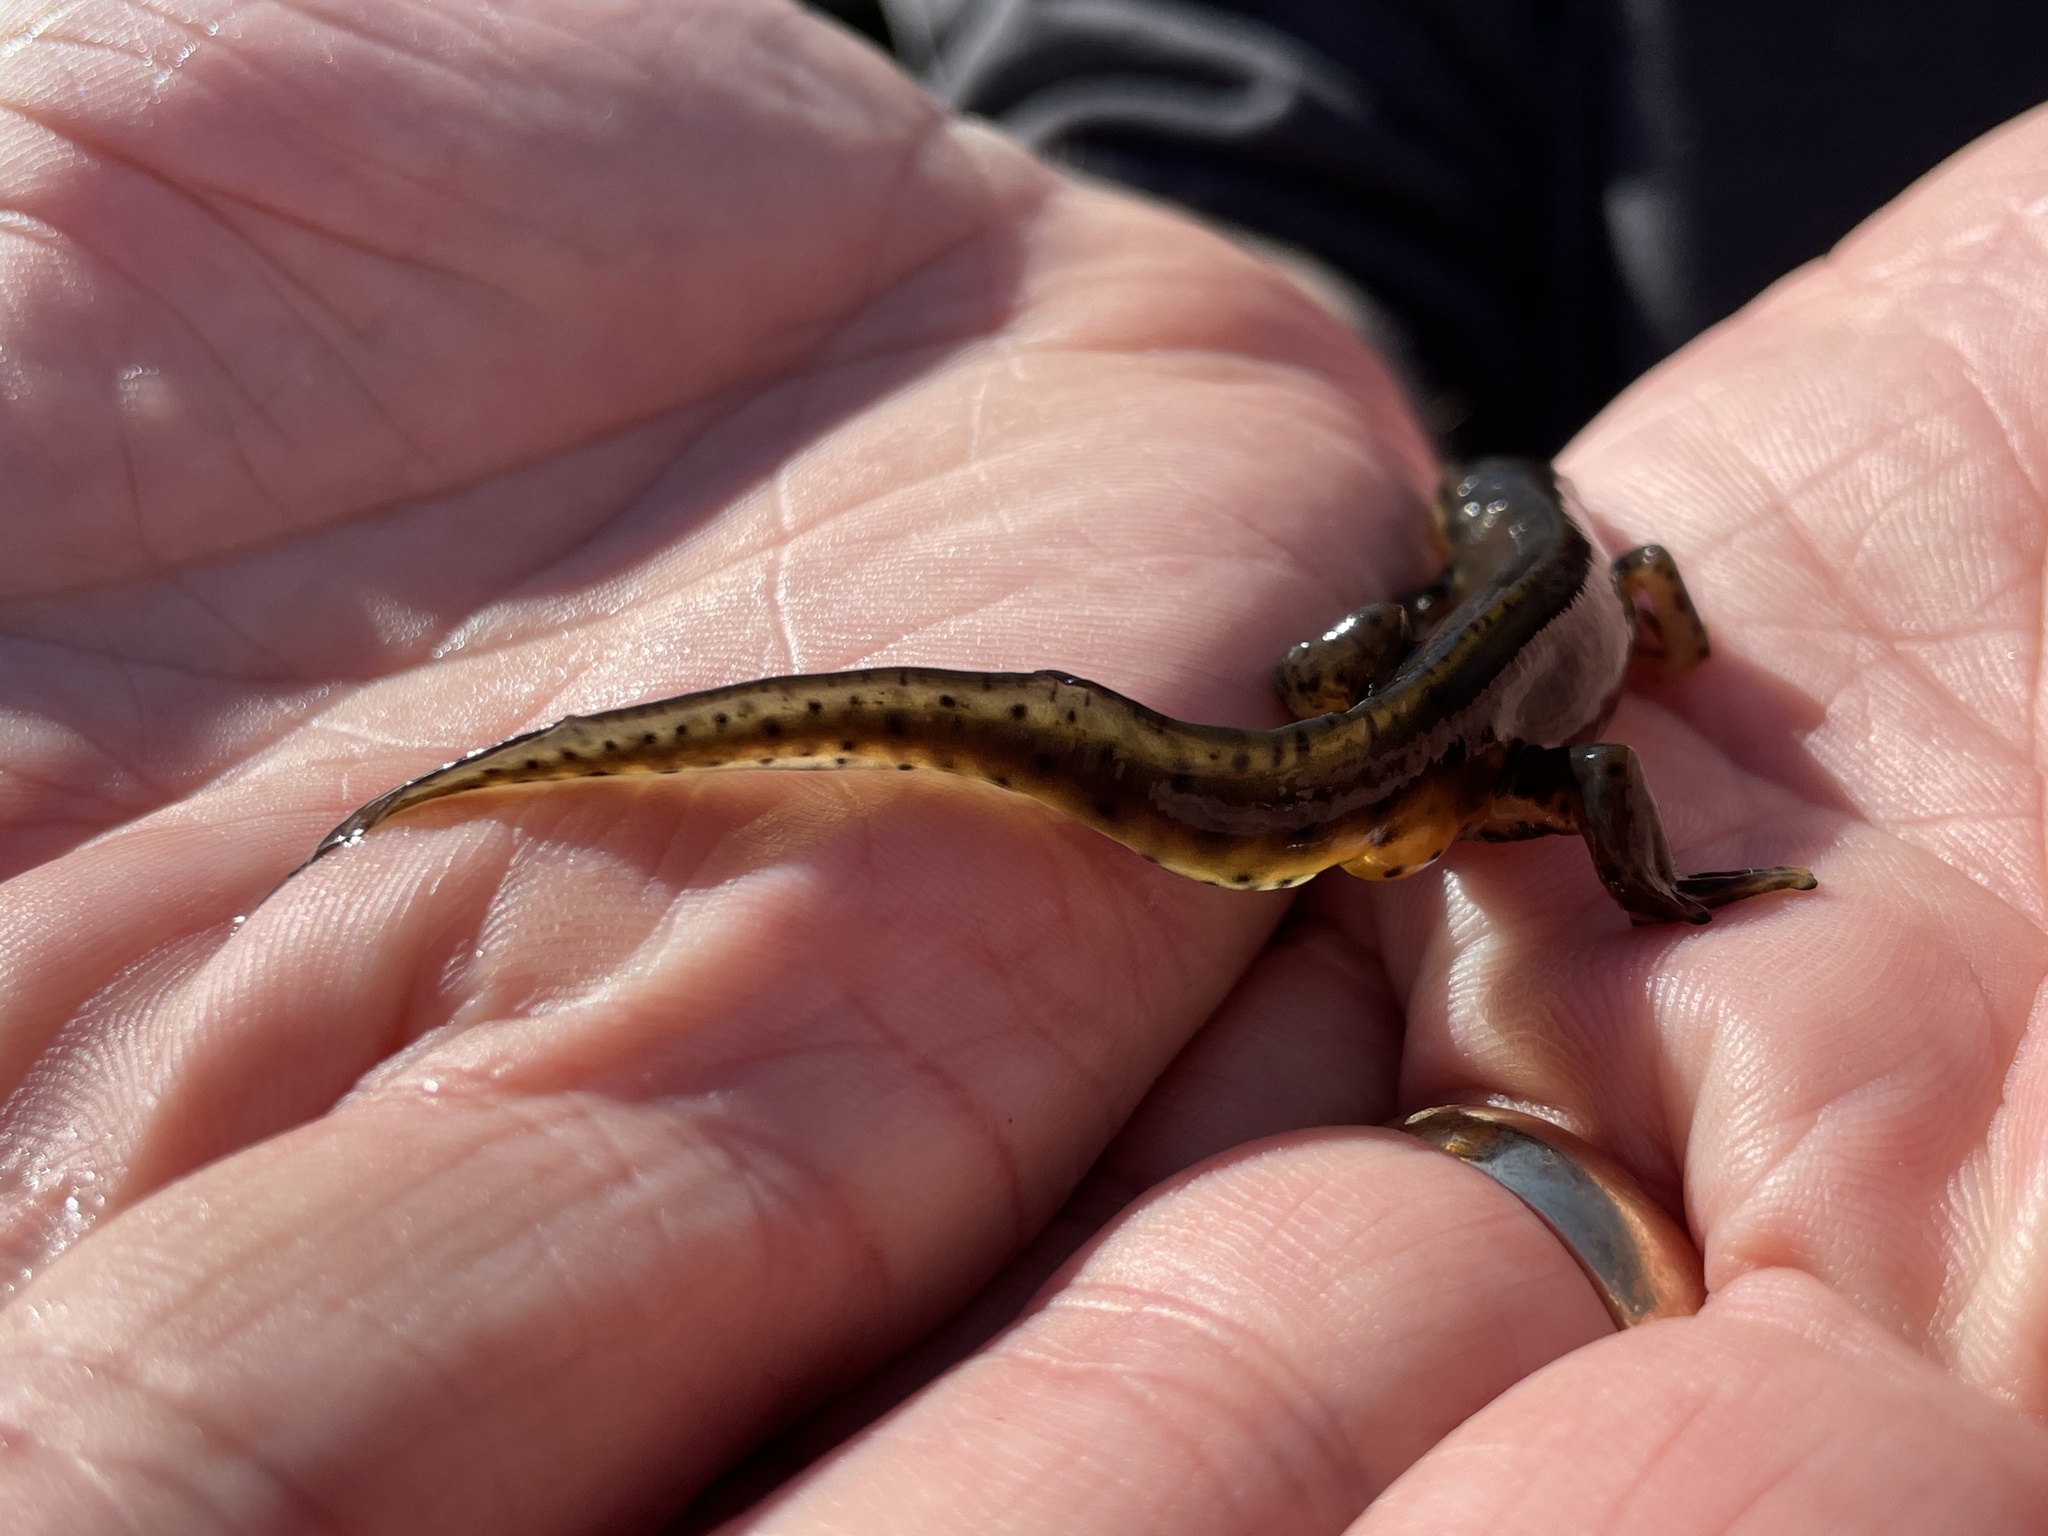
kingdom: Animalia
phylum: Chordata
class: Amphibia
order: Caudata
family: Salamandridae
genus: Notophthalmus
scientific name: Notophthalmus viridescens
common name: Eastern newt
